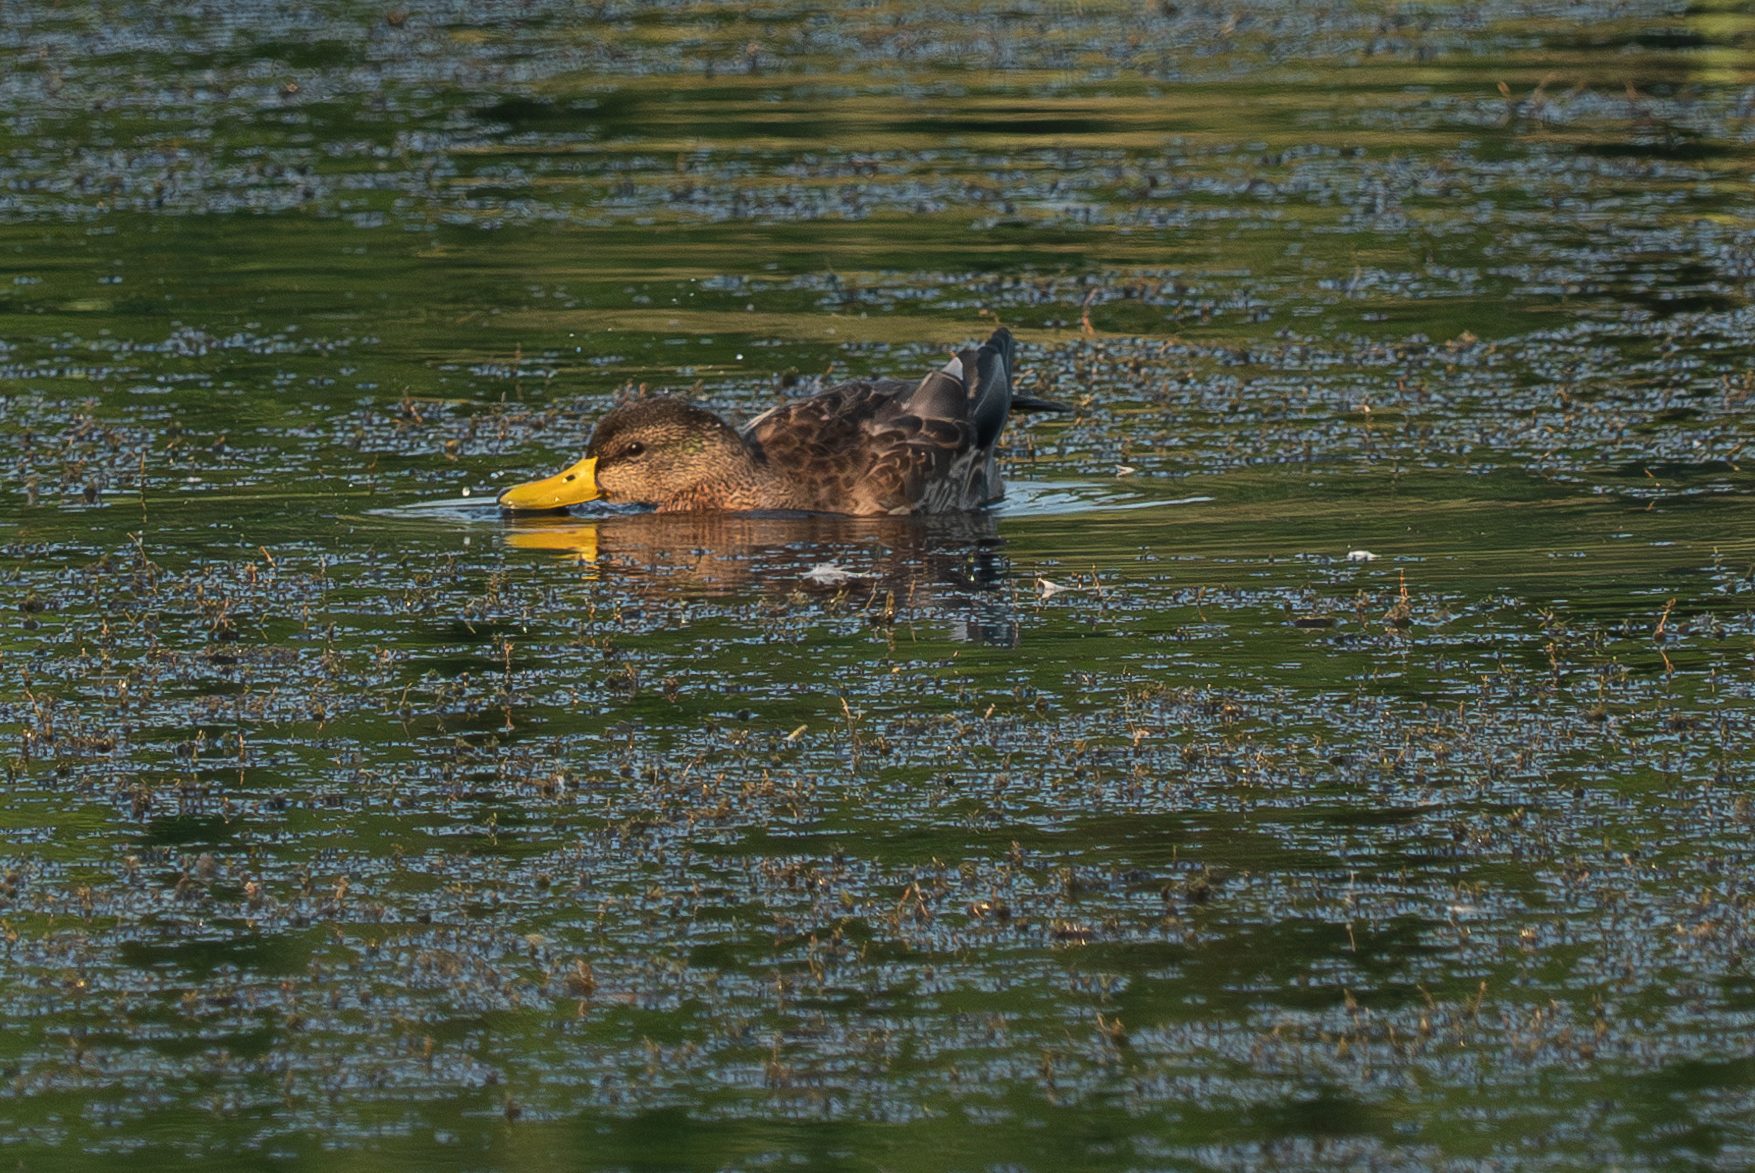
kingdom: Animalia
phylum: Chordata
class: Aves
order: Anseriformes
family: Anatidae
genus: Anas
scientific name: Anas platyrhynchos
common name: Mallard
